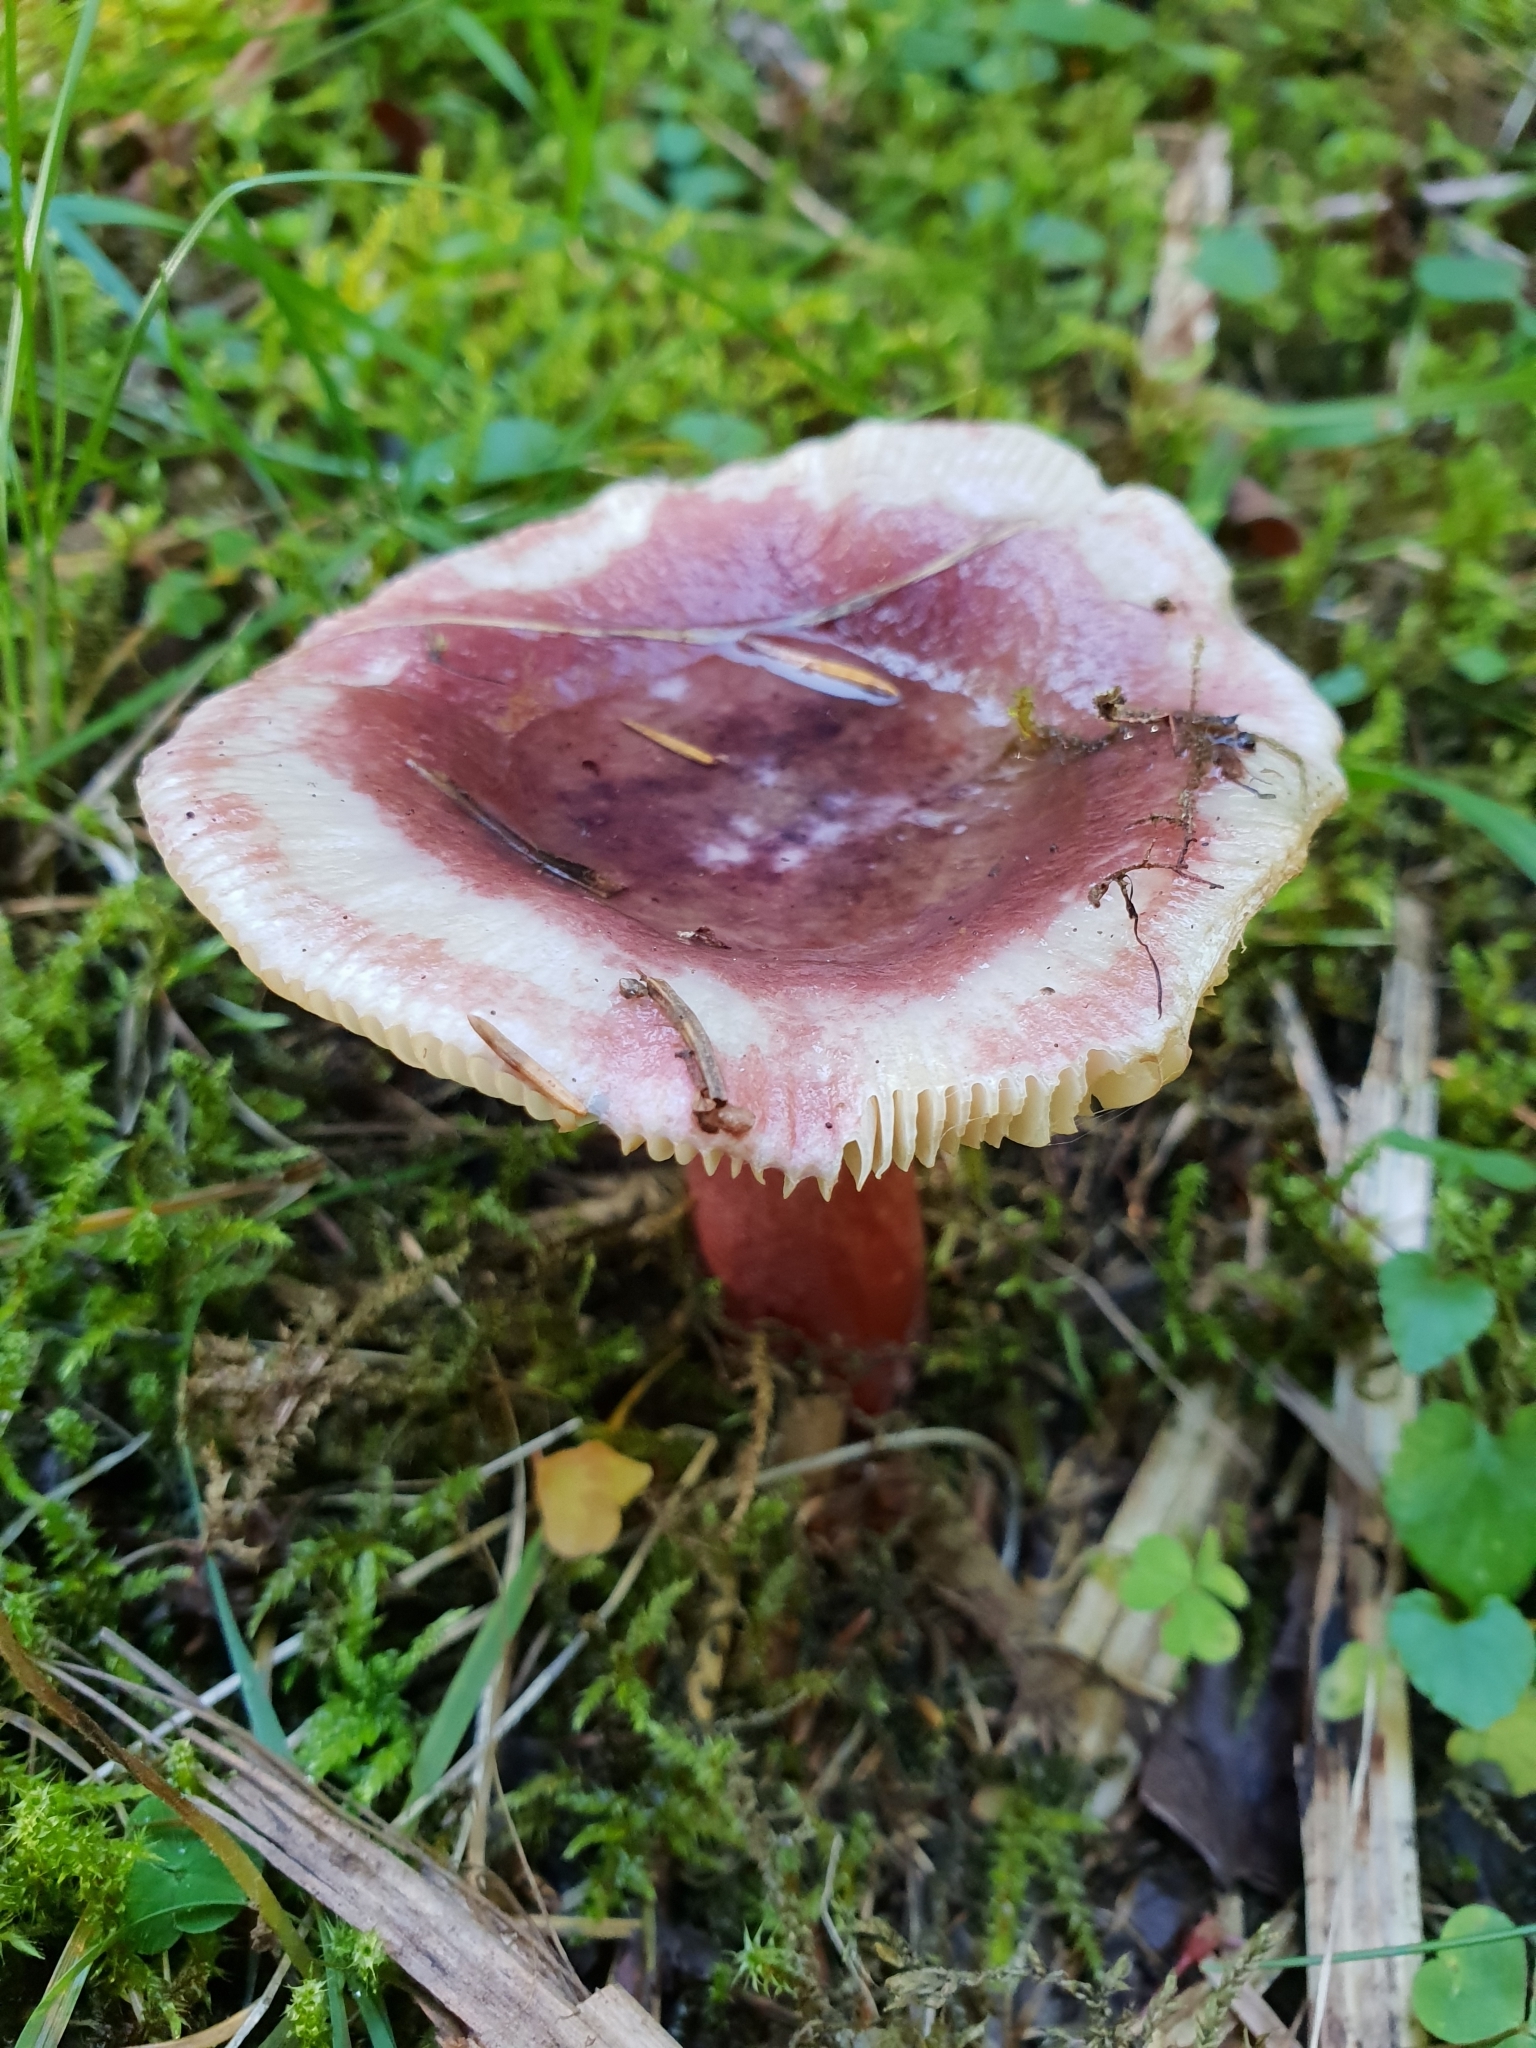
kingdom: Fungi
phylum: Basidiomycota
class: Agaricomycetes
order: Russulales
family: Russulaceae
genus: Russula
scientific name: Russula queletii
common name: Fruity brittlegill
